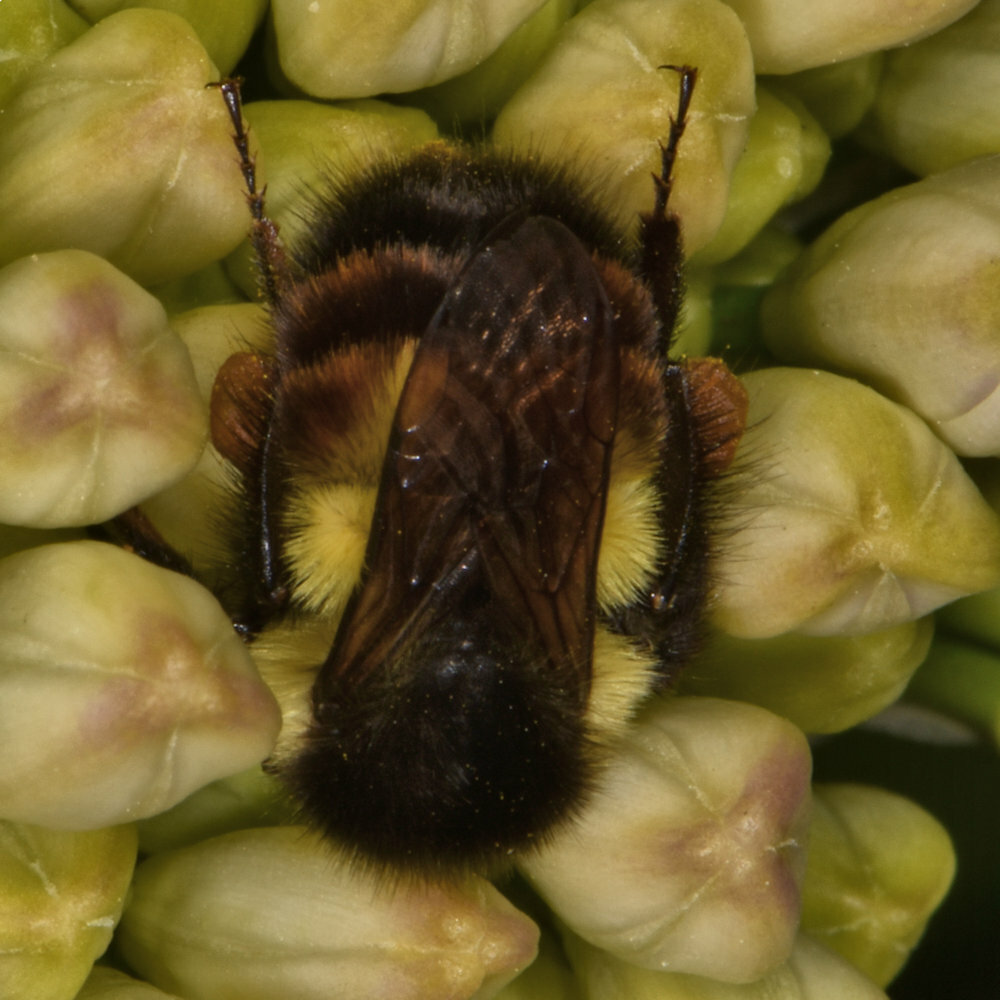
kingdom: Animalia
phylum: Arthropoda
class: Insecta
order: Hymenoptera
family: Apidae
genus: Bombus
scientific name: Bombus ephippiatus
